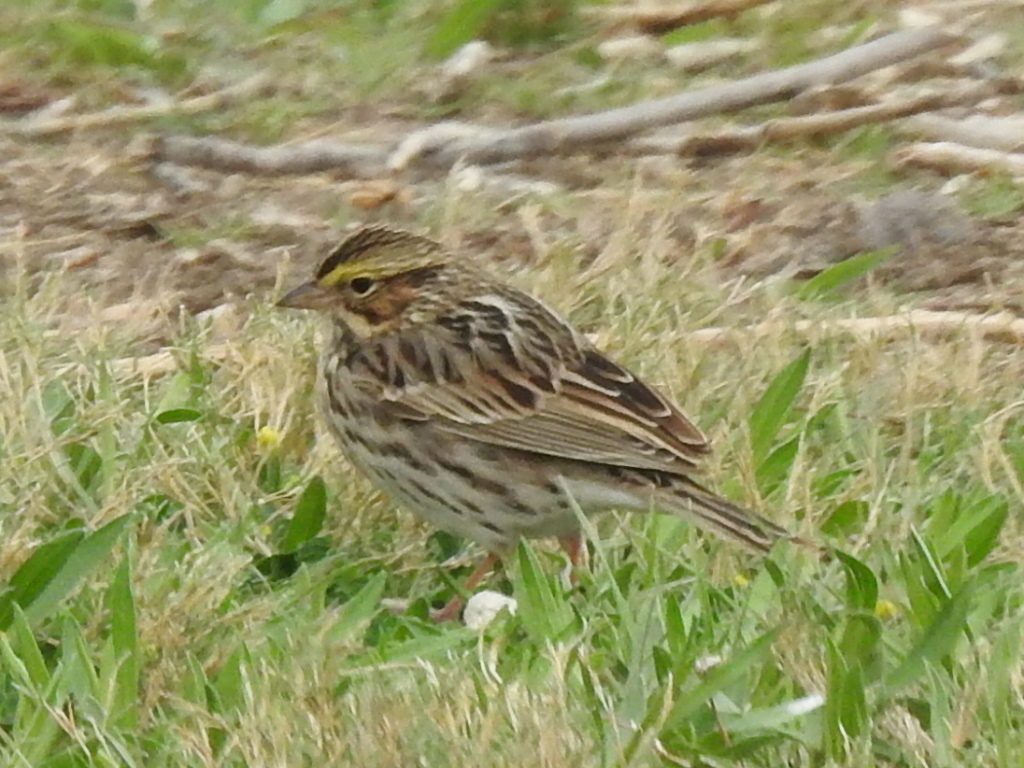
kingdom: Animalia
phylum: Chordata
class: Aves
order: Passeriformes
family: Passerellidae
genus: Passerculus
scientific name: Passerculus sandwichensis
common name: Savannah sparrow
